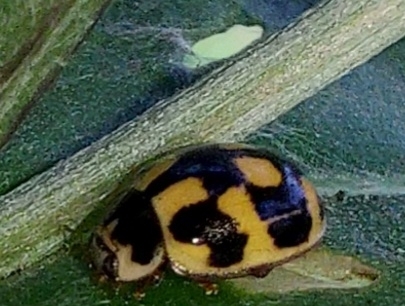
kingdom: Animalia
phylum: Arthropoda
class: Insecta
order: Coleoptera
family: Coccinellidae
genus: Propylaea
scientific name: Propylaea quatuordecimpunctata
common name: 14-spotted ladybird beetle
